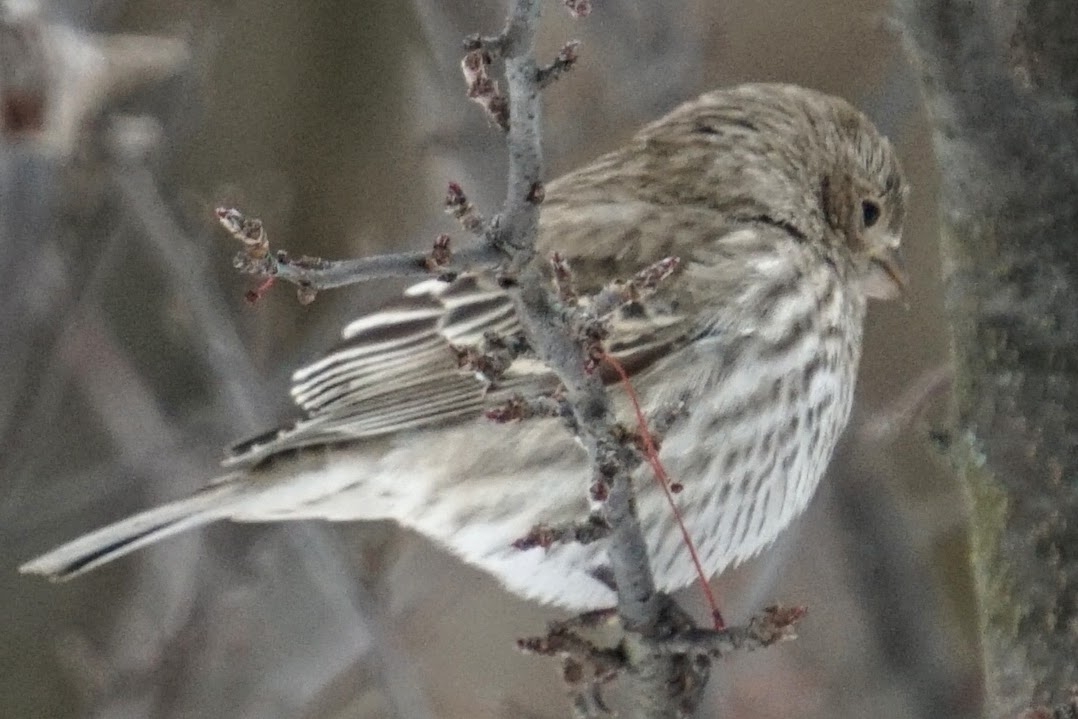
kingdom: Animalia
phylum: Chordata
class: Aves
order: Passeriformes
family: Fringillidae
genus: Haemorhous
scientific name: Haemorhous mexicanus
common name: House finch
